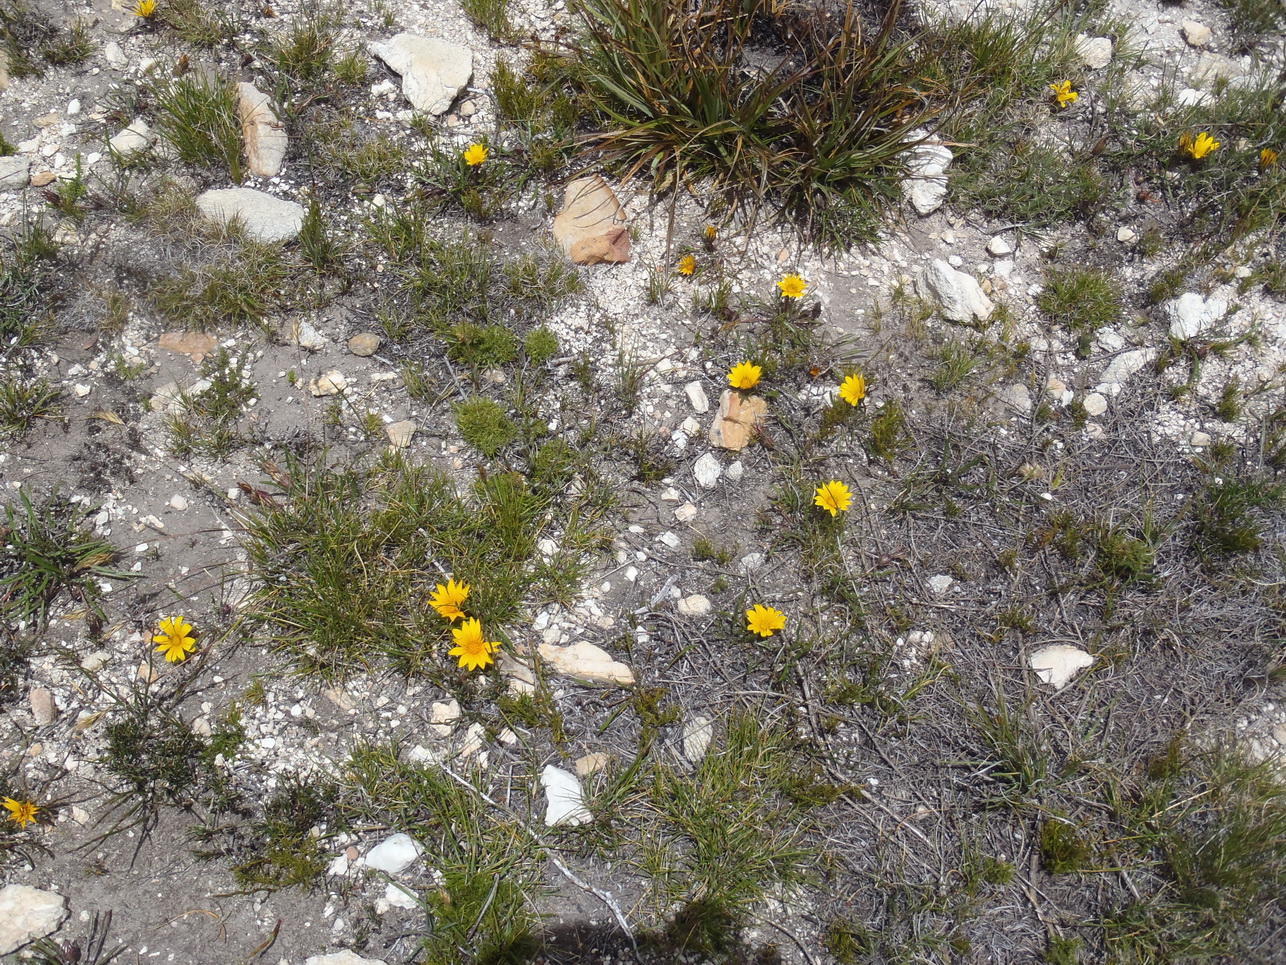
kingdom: Plantae
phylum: Tracheophyta
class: Magnoliopsida
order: Asterales
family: Asteraceae
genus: Gazania
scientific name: Gazania krebsiana
